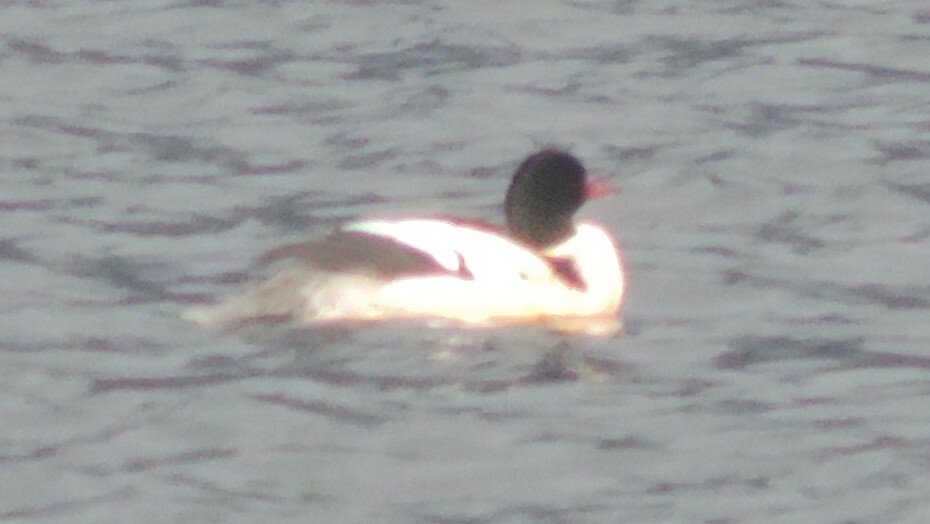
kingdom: Animalia
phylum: Chordata
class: Aves
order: Anseriformes
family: Anatidae
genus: Mergus
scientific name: Mergus merganser
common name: Common merganser
